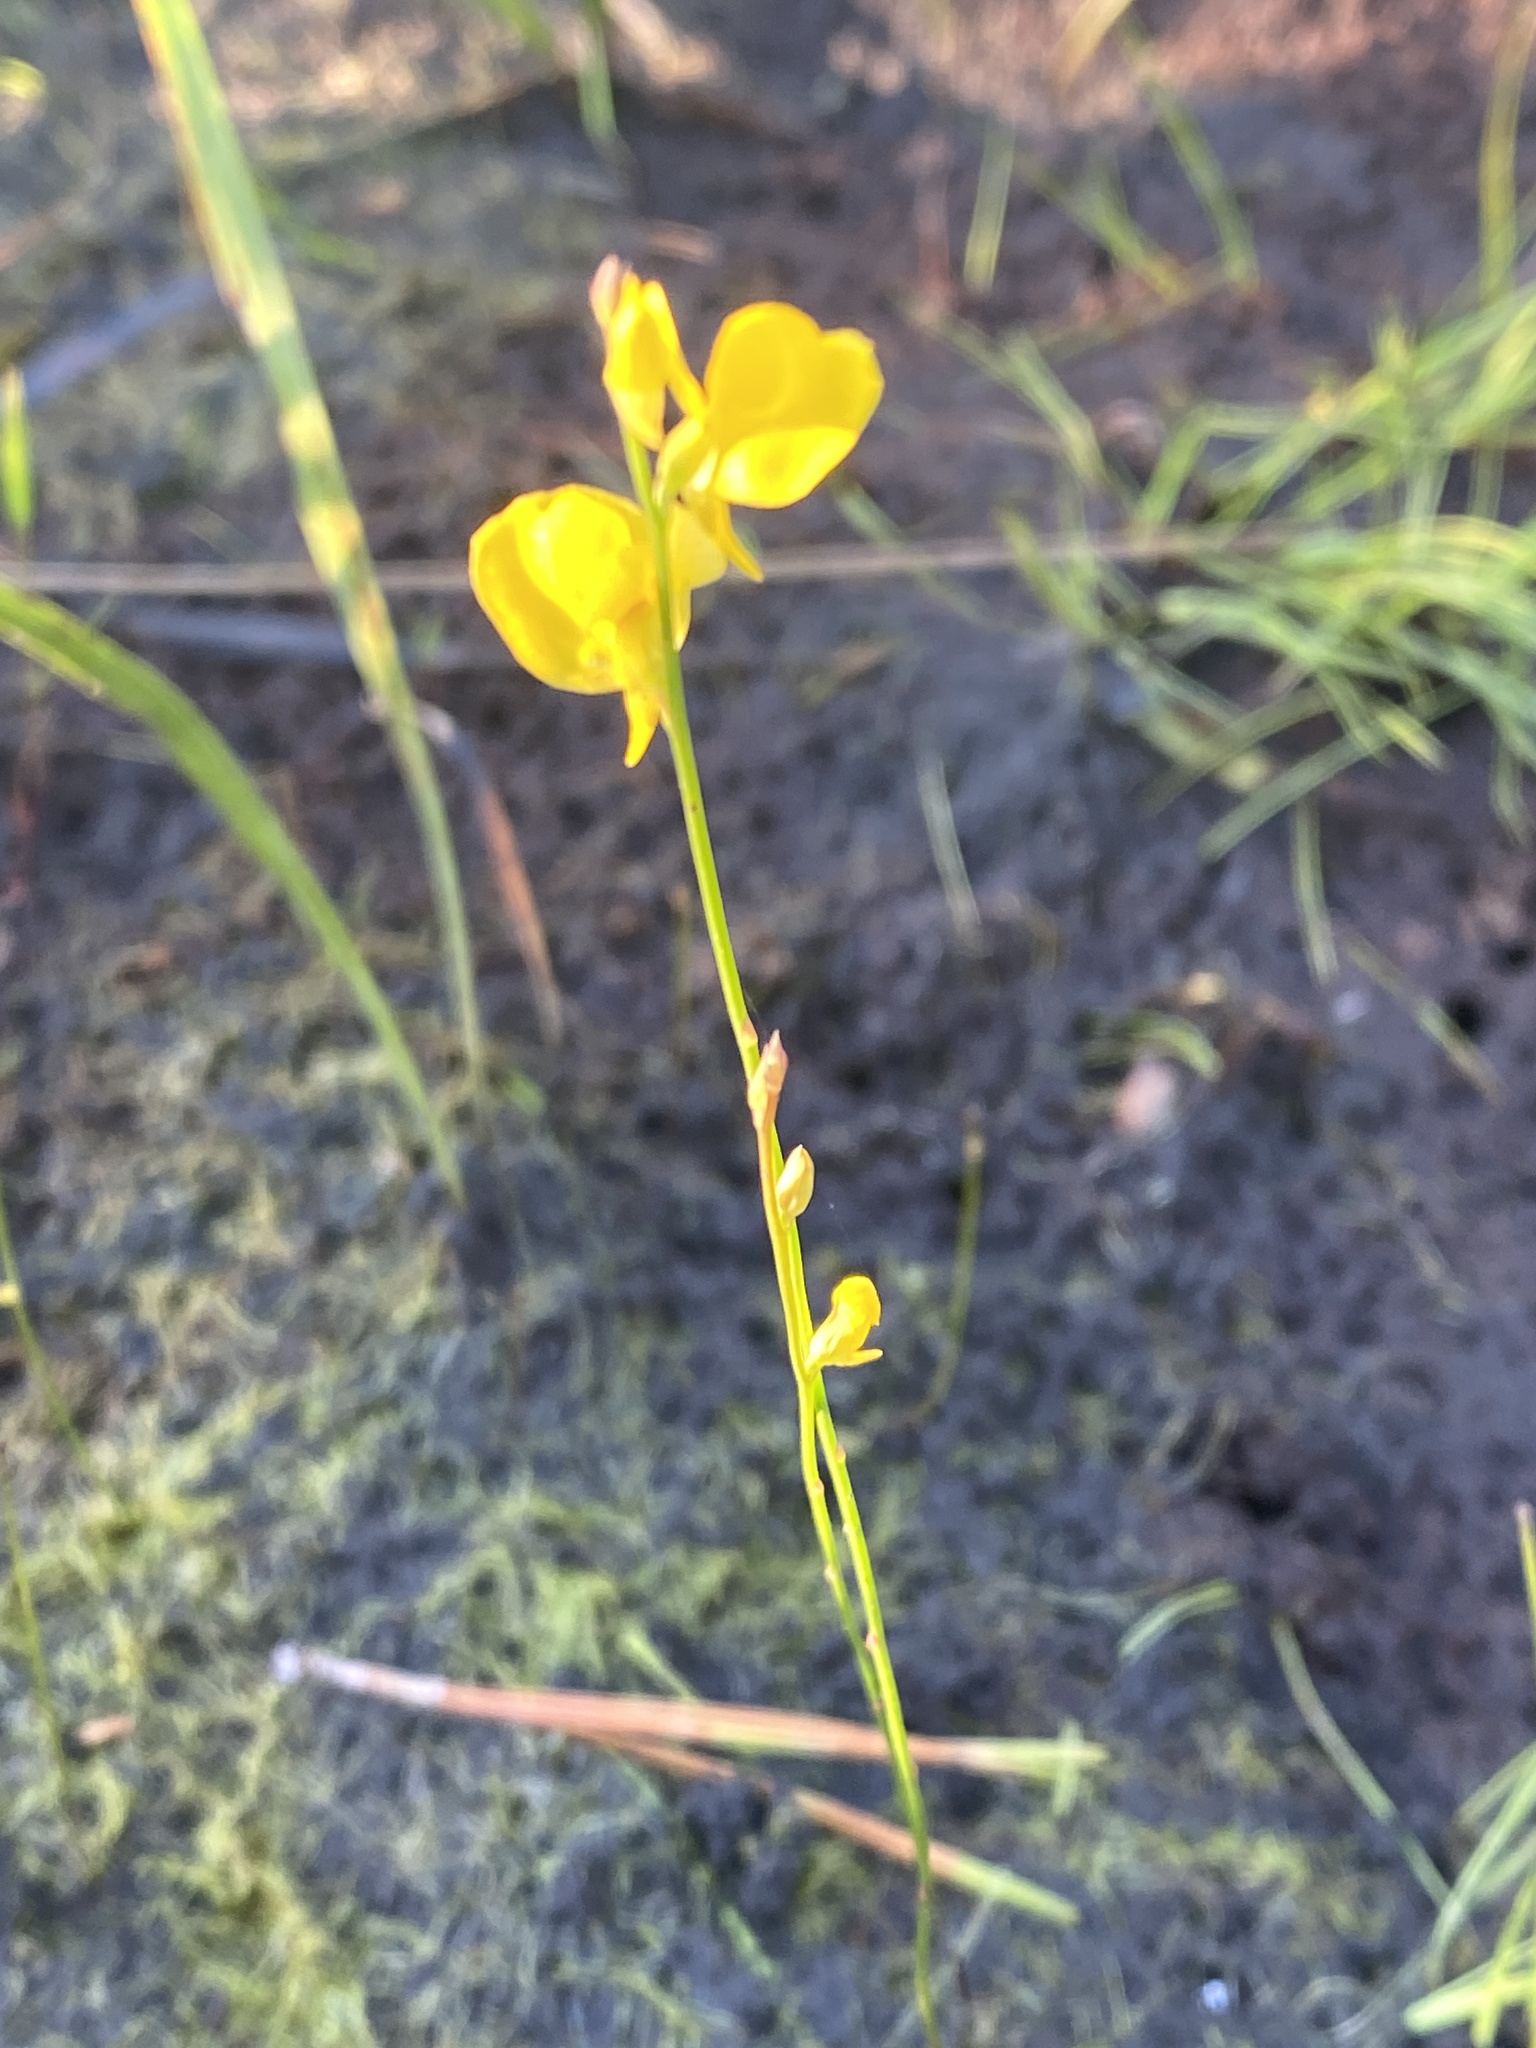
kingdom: Plantae
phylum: Tracheophyta
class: Magnoliopsida
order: Lamiales
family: Lentibulariaceae
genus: Utricularia
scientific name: Utricularia cornuta
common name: Horned bladderwort
